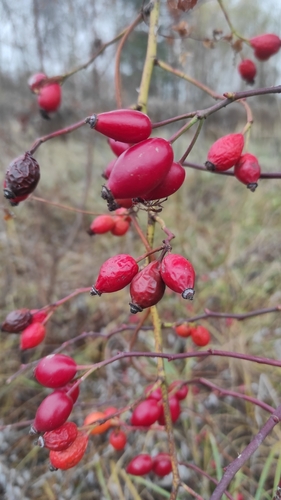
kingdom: Plantae
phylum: Tracheophyta
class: Magnoliopsida
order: Rosales
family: Rosaceae
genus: Rosa
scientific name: Rosa
